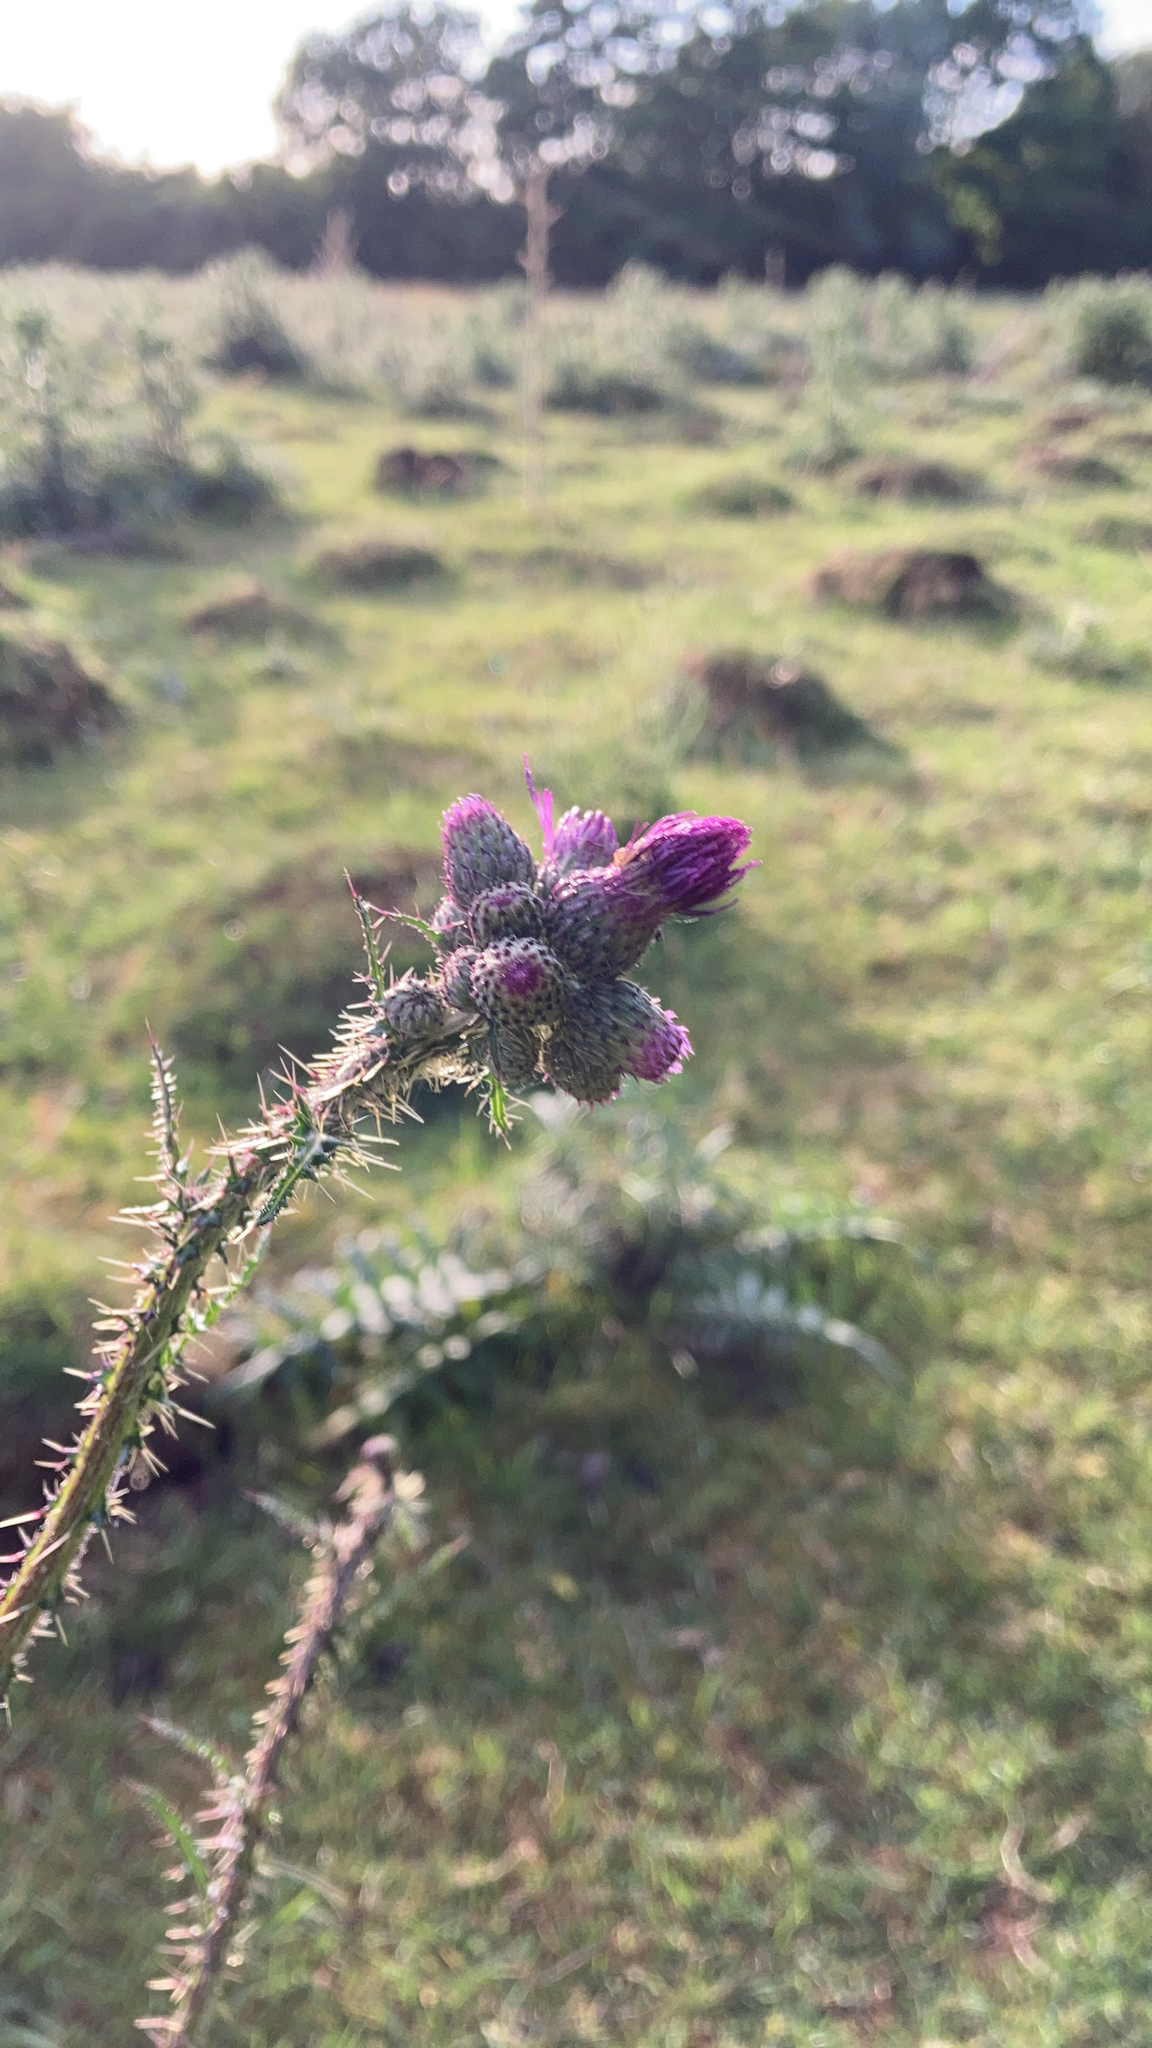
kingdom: Plantae
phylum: Tracheophyta
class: Magnoliopsida
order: Asterales
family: Asteraceae
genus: Cirsium
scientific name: Cirsium palustre
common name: Marsh thistle
